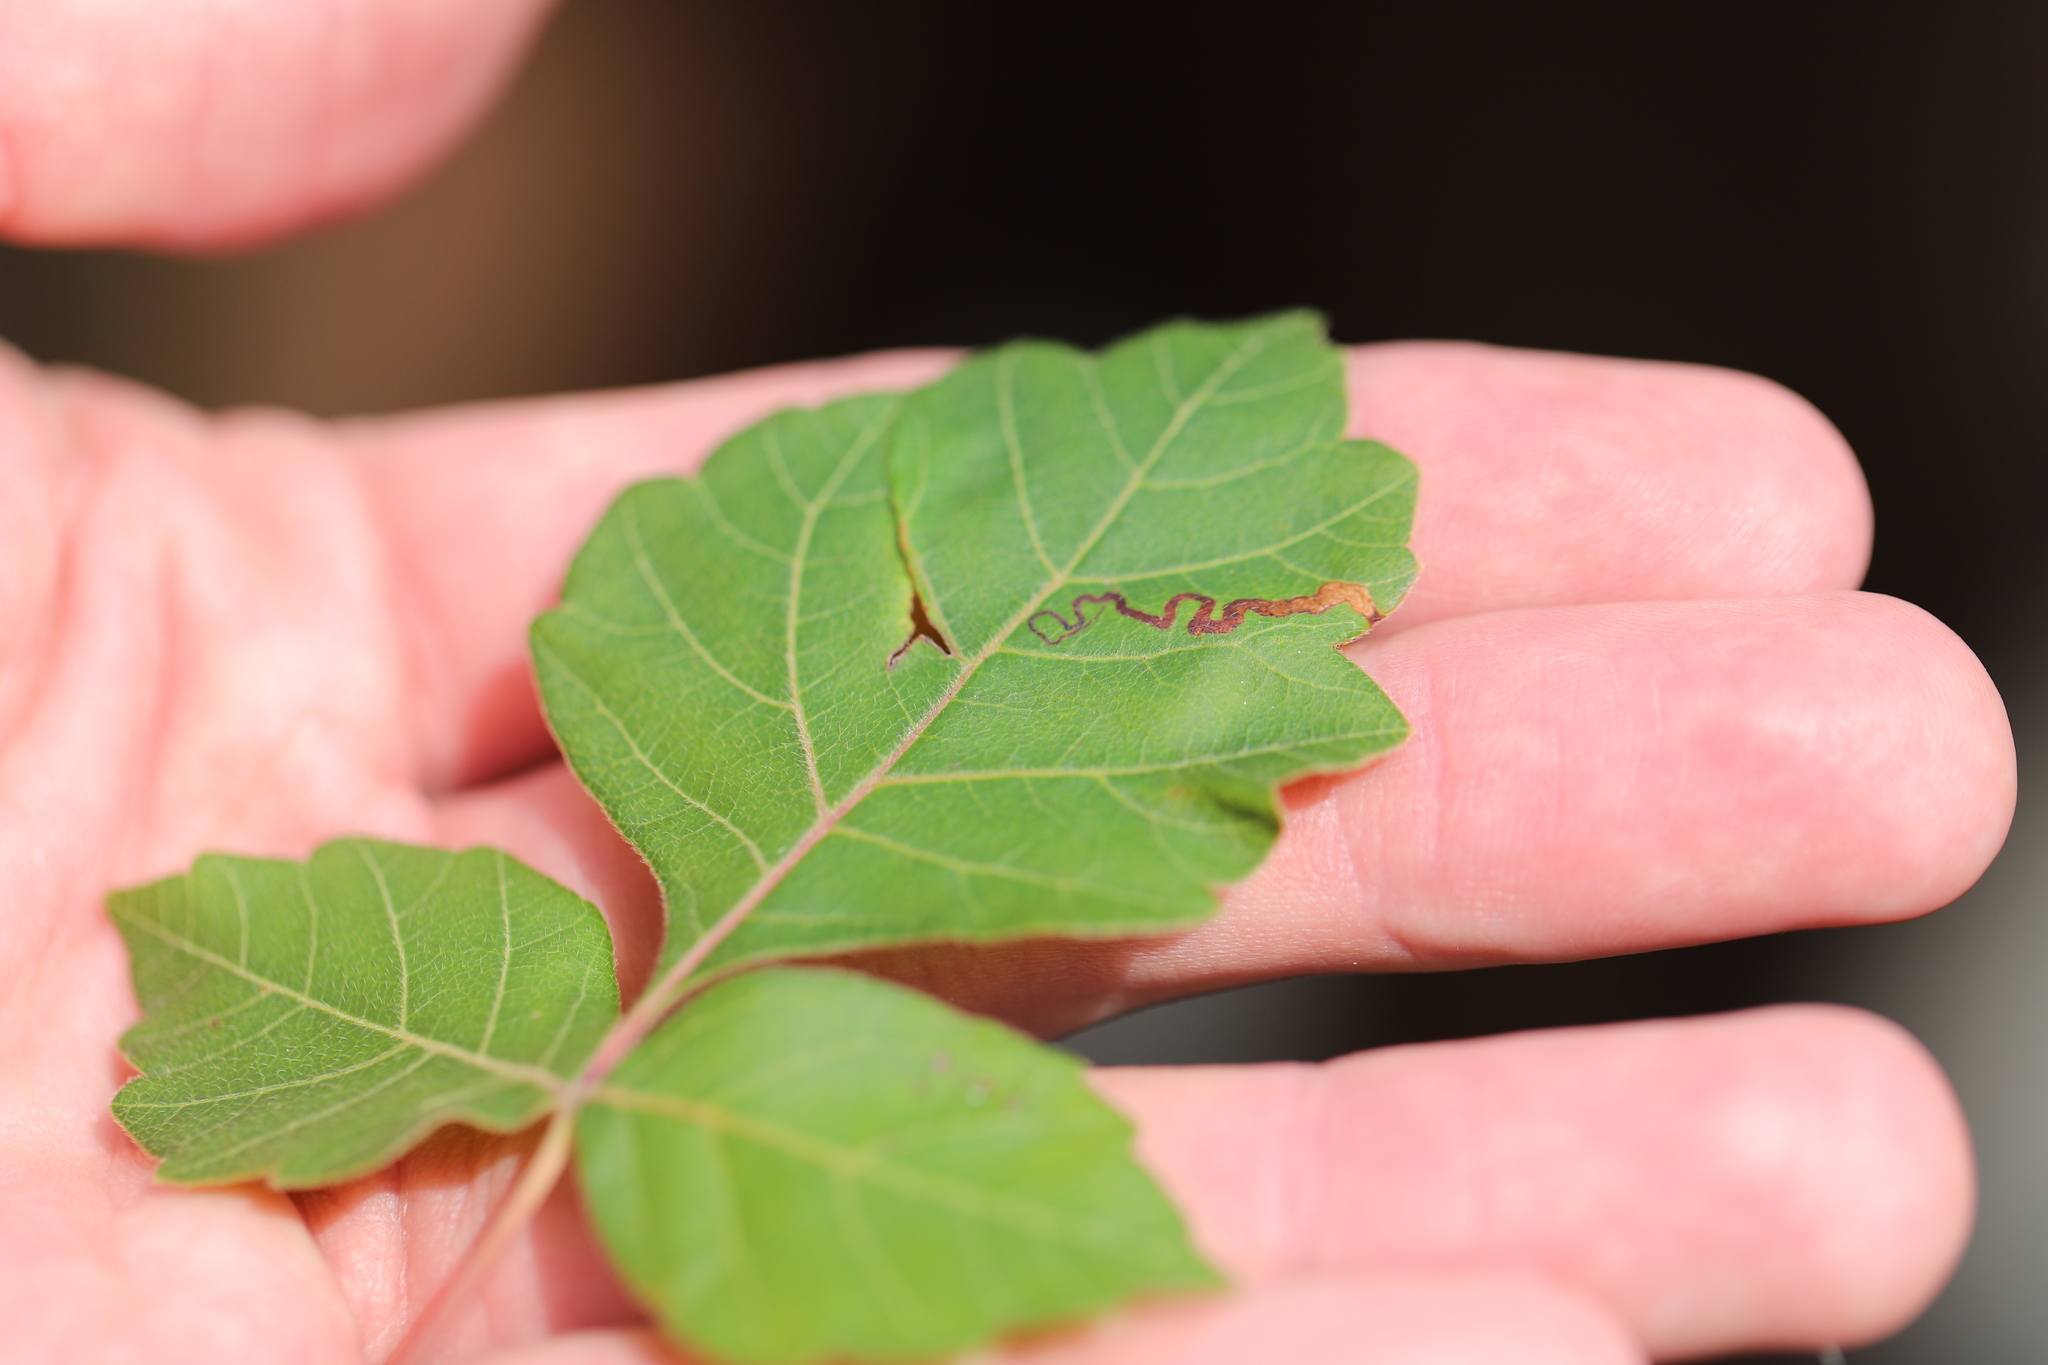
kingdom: Animalia
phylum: Arthropoda
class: Insecta
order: Lepidoptera
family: Nepticulidae
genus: Stigmella
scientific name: Stigmella intermedia
